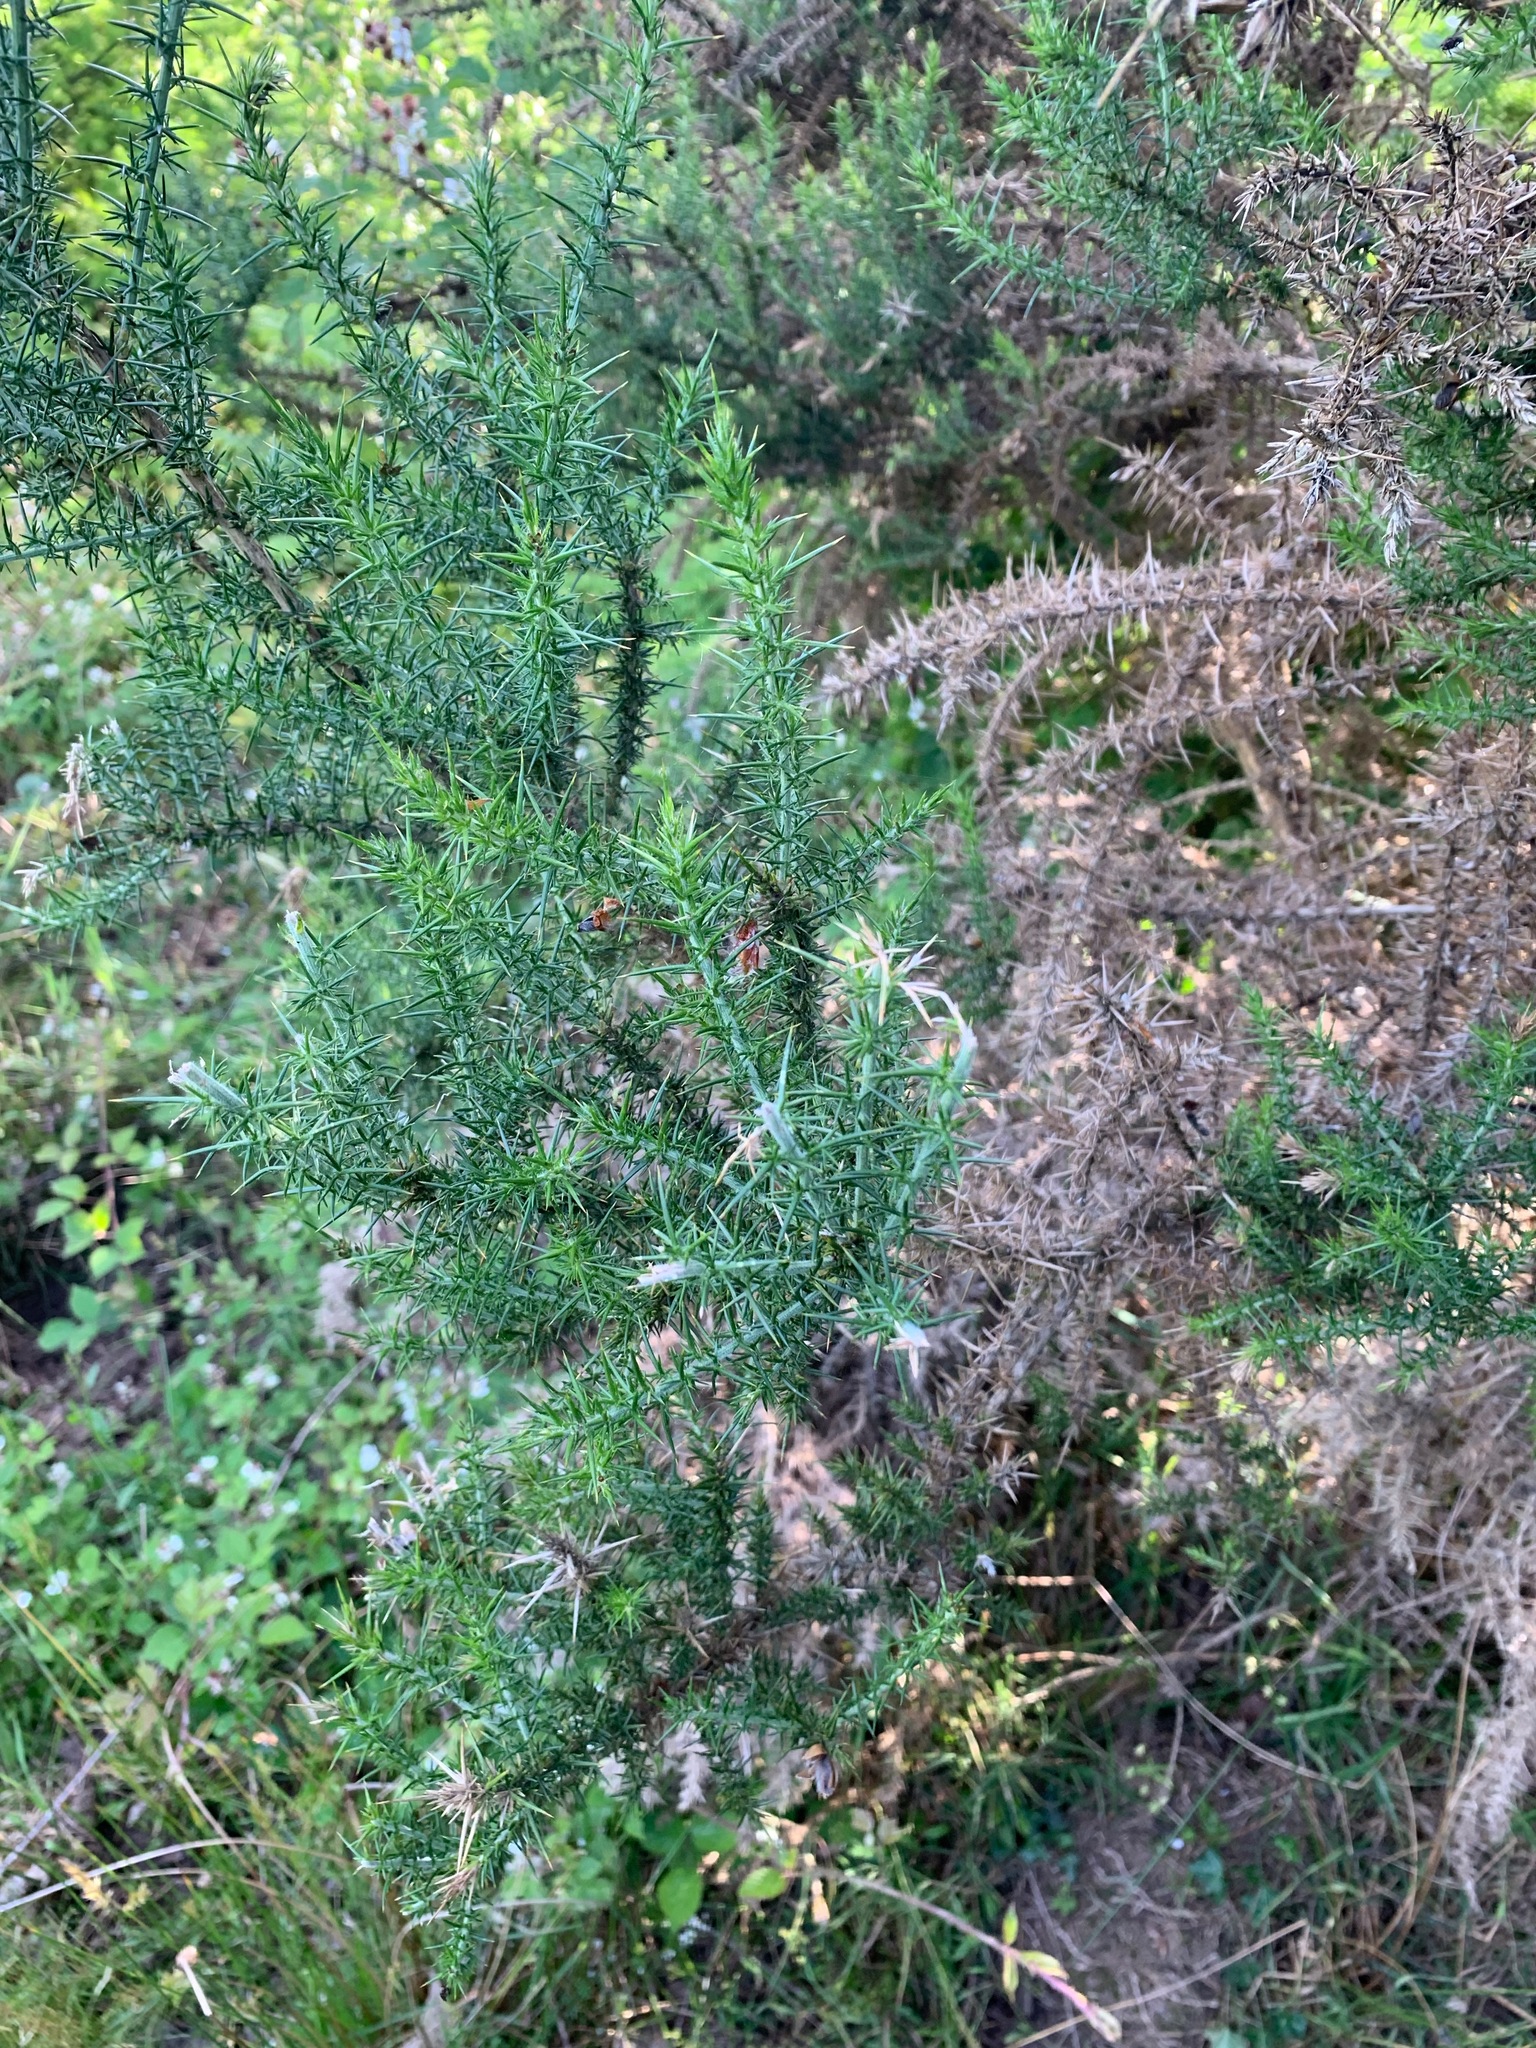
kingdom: Plantae
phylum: Tracheophyta
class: Magnoliopsida
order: Fabales
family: Fabaceae
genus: Ulex
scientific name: Ulex europaeus
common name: Common gorse
